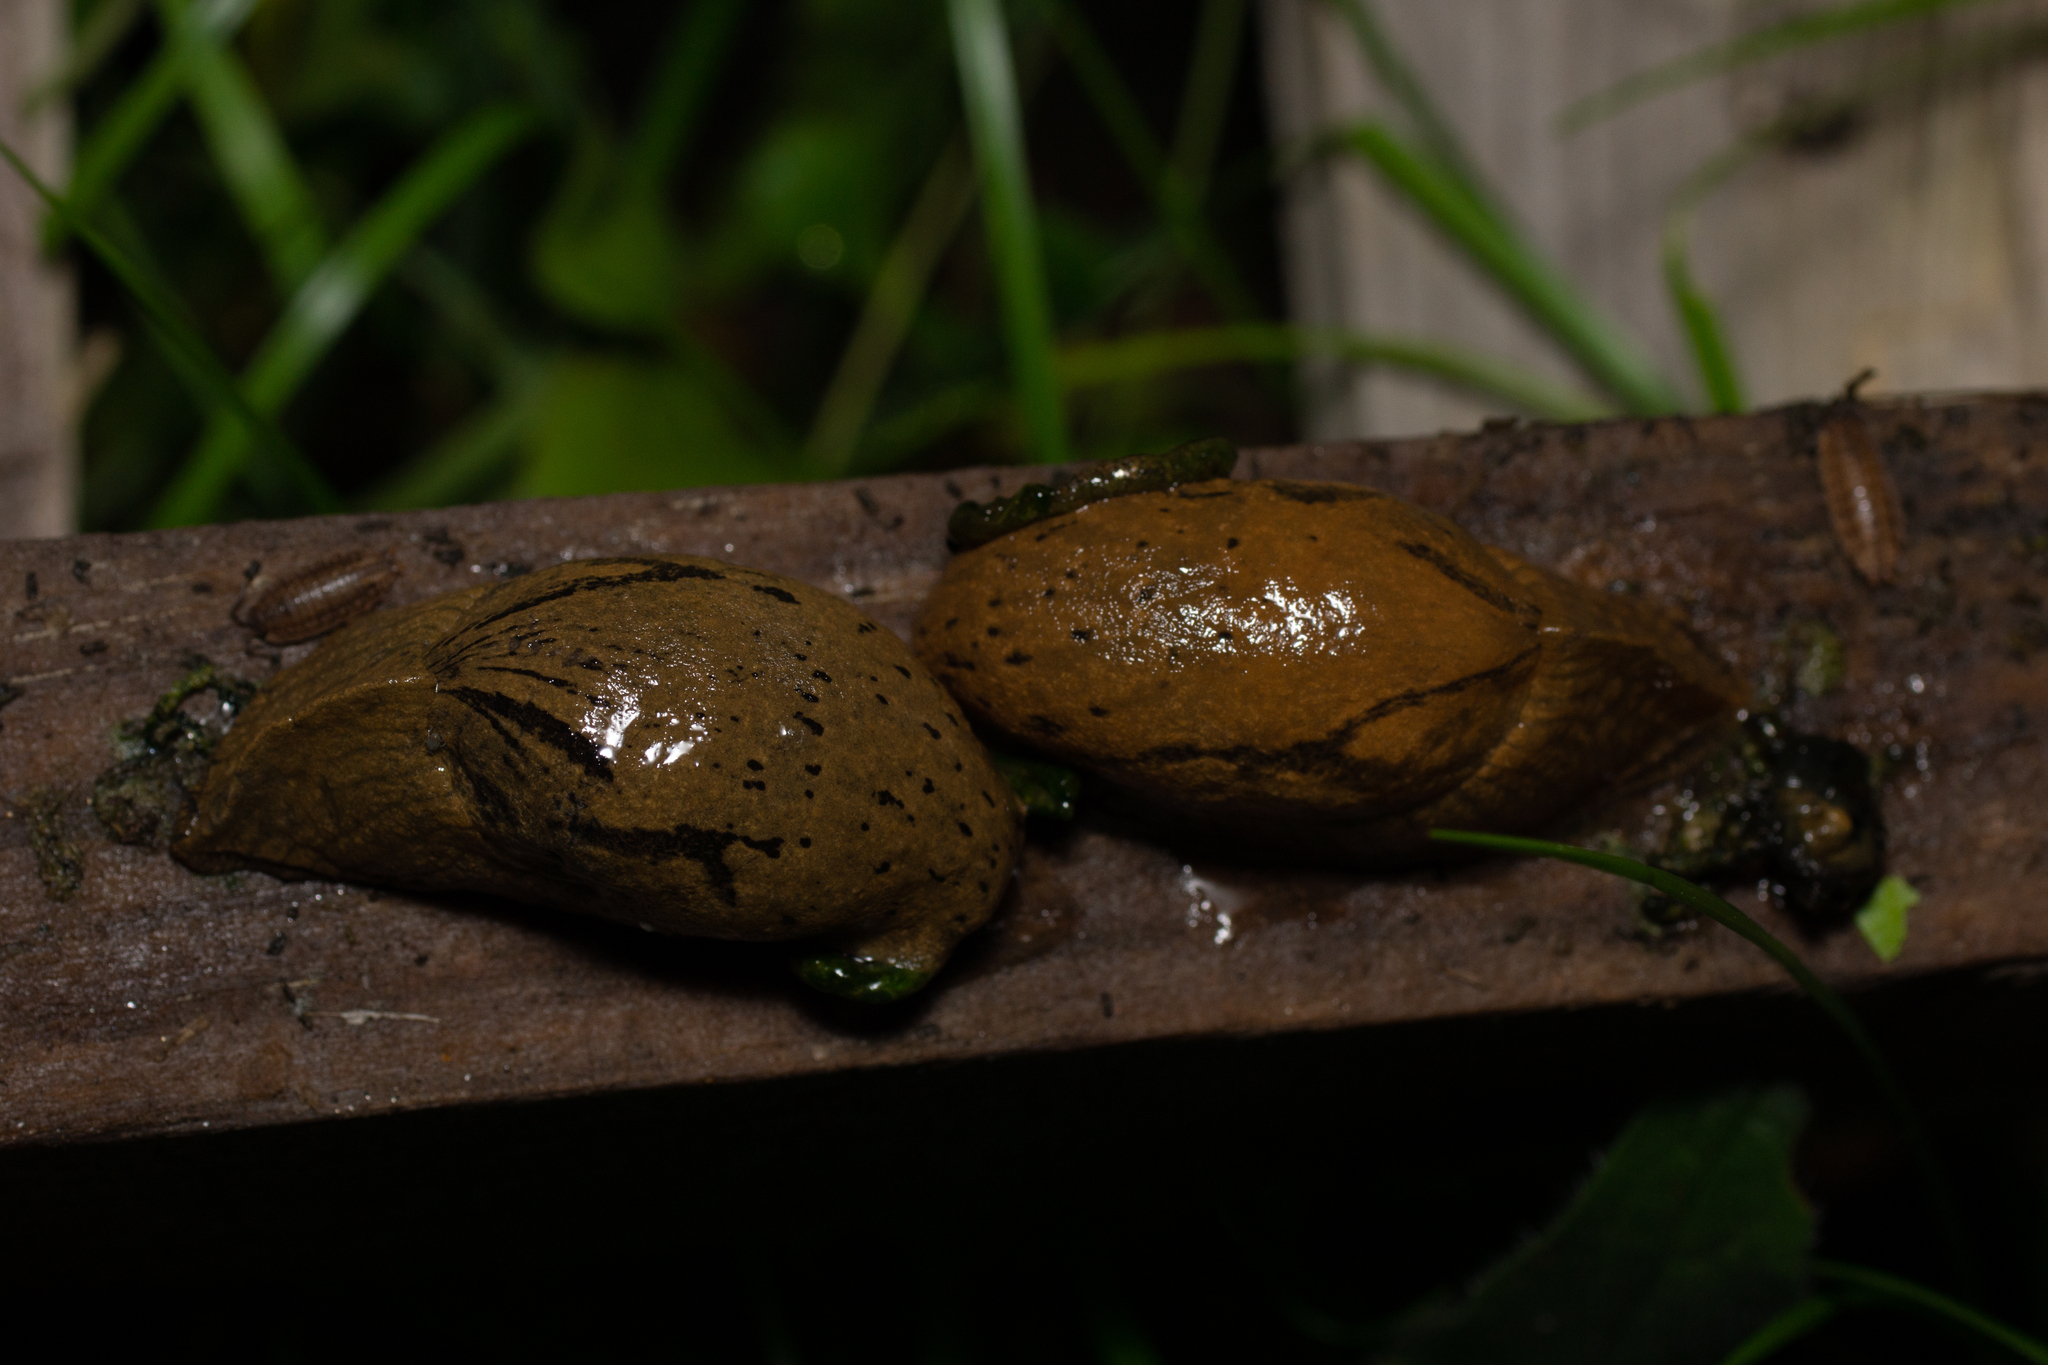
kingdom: Animalia
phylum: Mollusca
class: Gastropoda
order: Stylommatophora
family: Parmacellidae
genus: Drusia
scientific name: Drusia valenciennii
